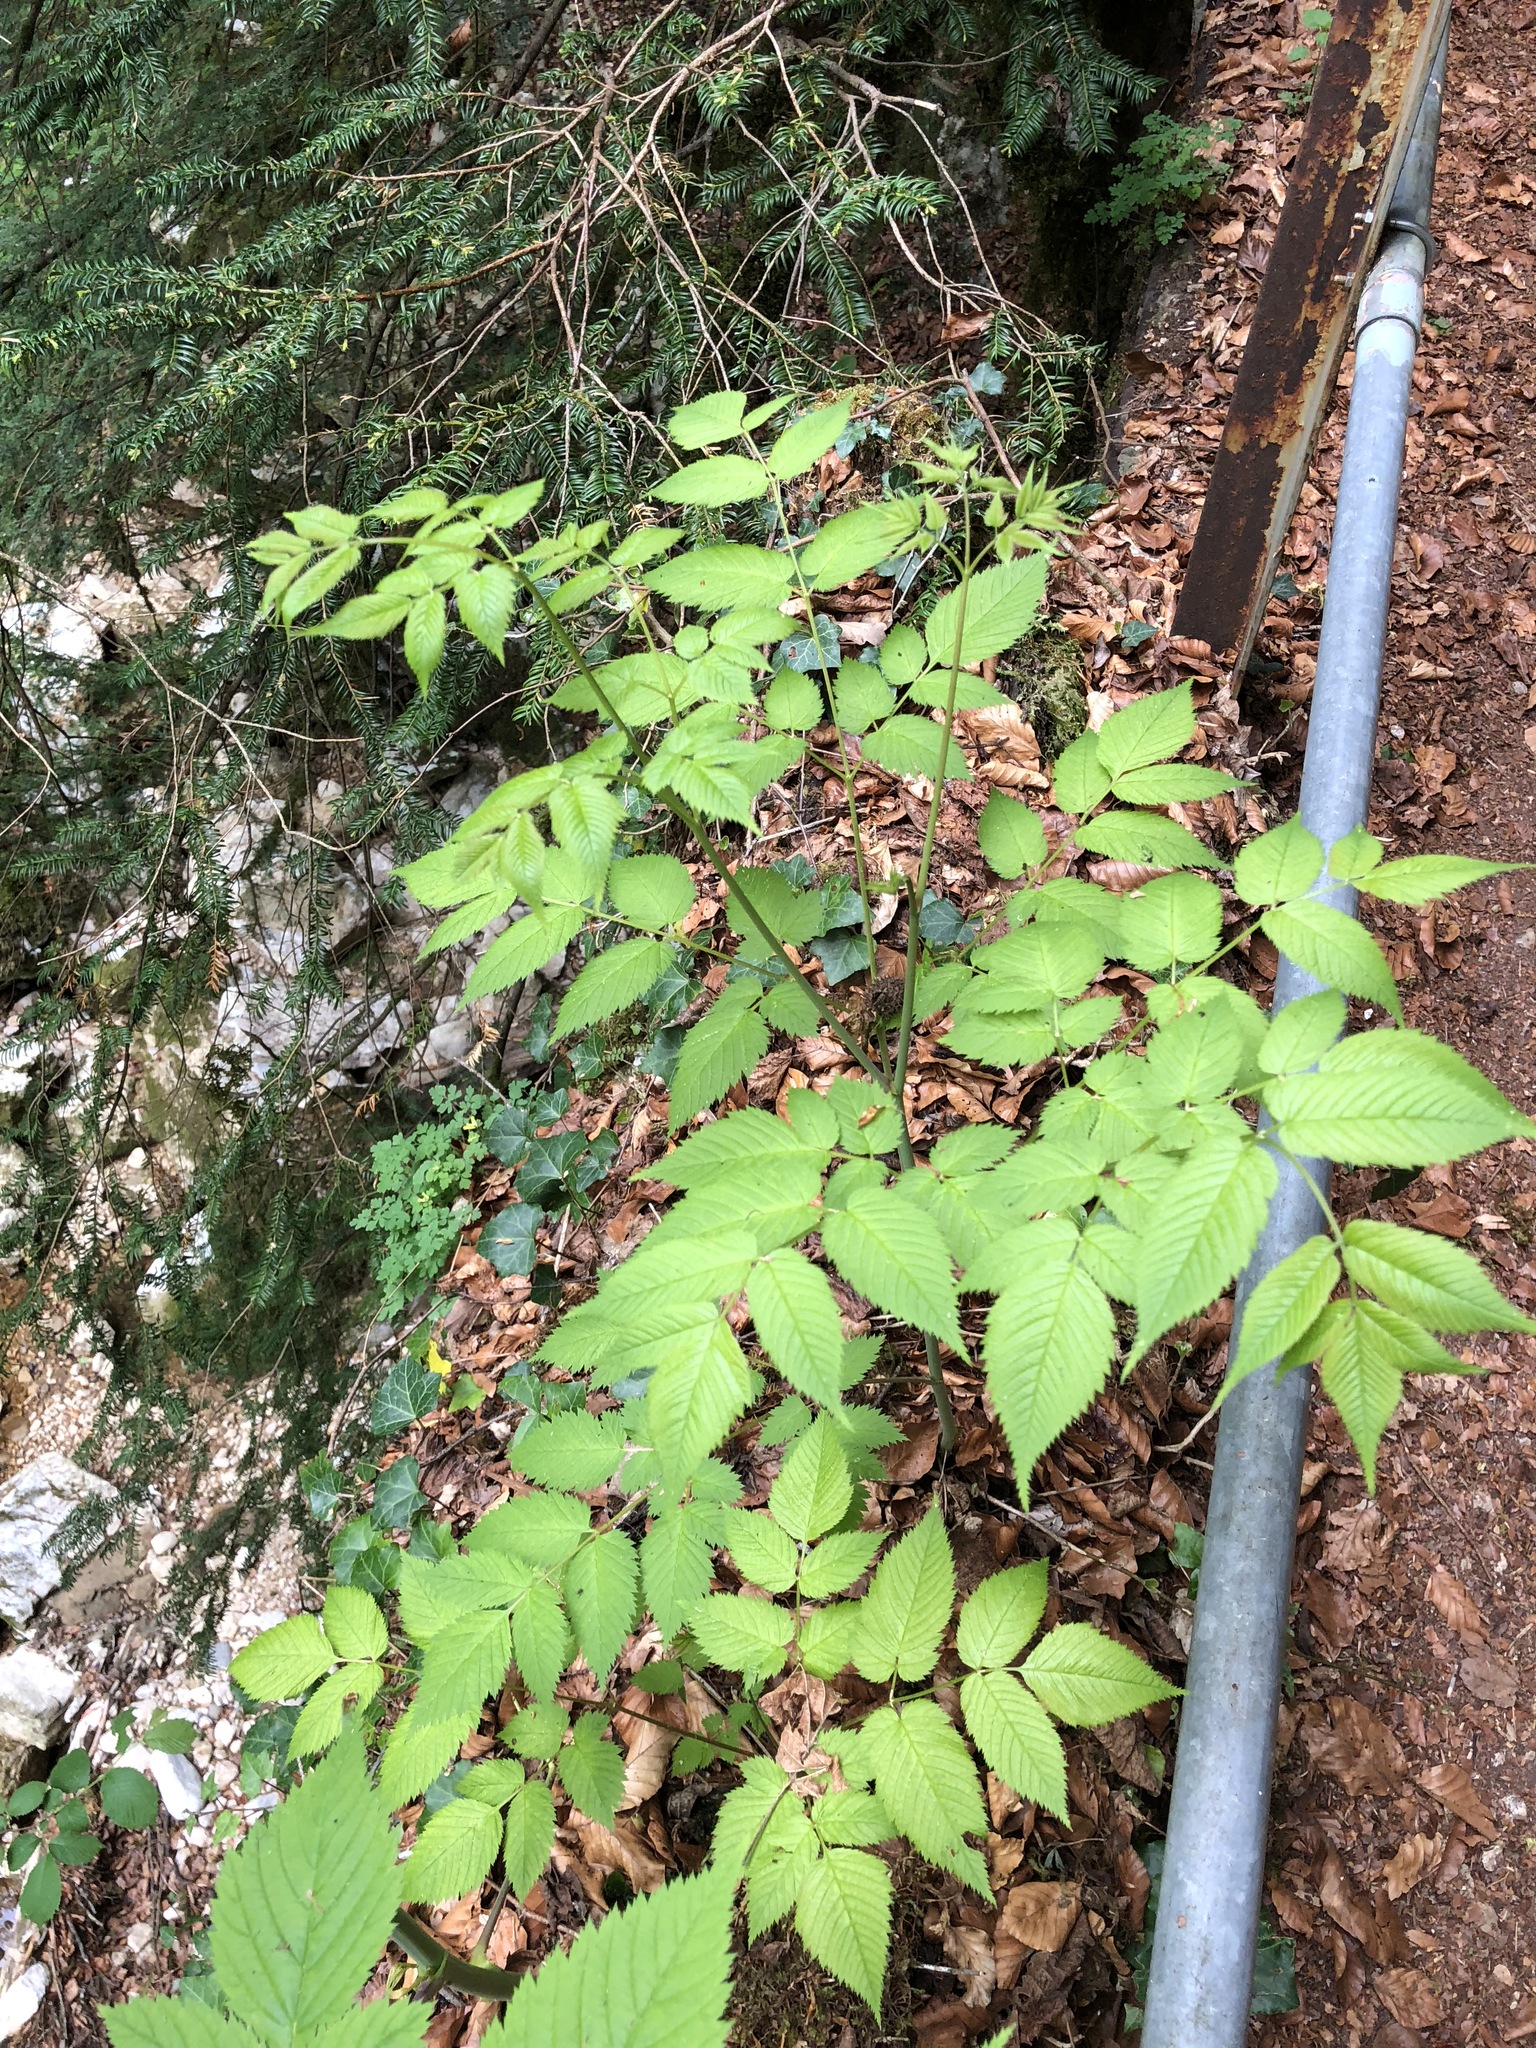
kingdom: Plantae
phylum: Tracheophyta
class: Magnoliopsida
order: Rosales
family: Rosaceae
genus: Aruncus
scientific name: Aruncus dioicus
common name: Buck's-beard
